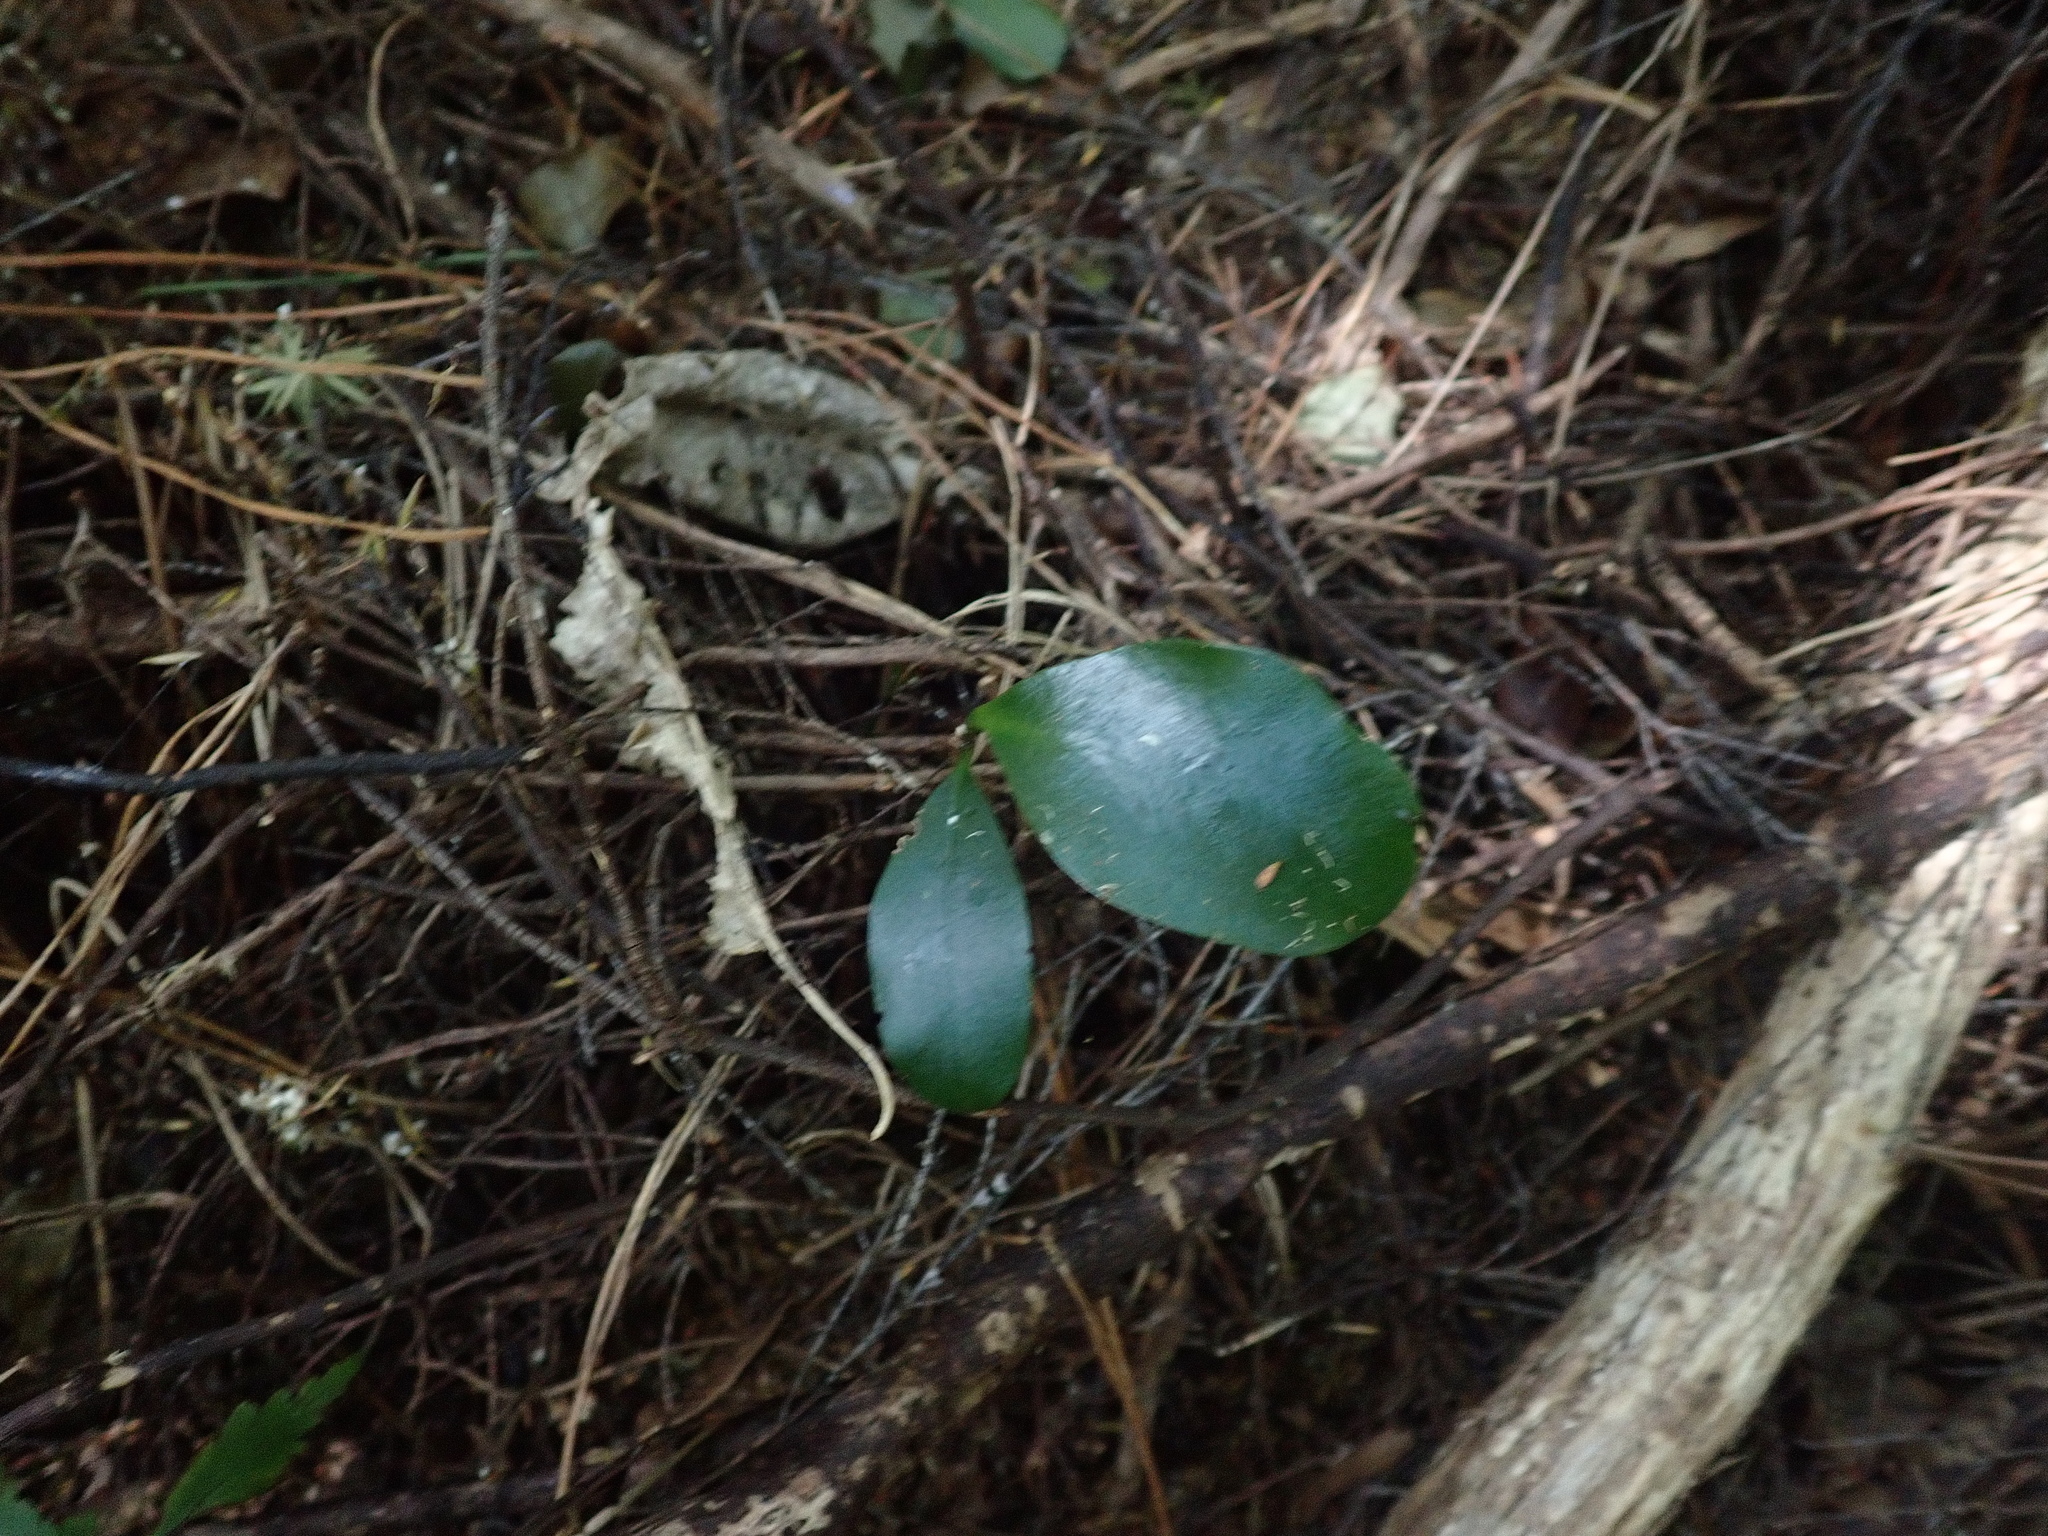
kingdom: Plantae
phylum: Tracheophyta
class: Magnoliopsida
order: Cucurbitales
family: Corynocarpaceae
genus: Corynocarpus
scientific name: Corynocarpus laevigatus
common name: New zealand laurel
